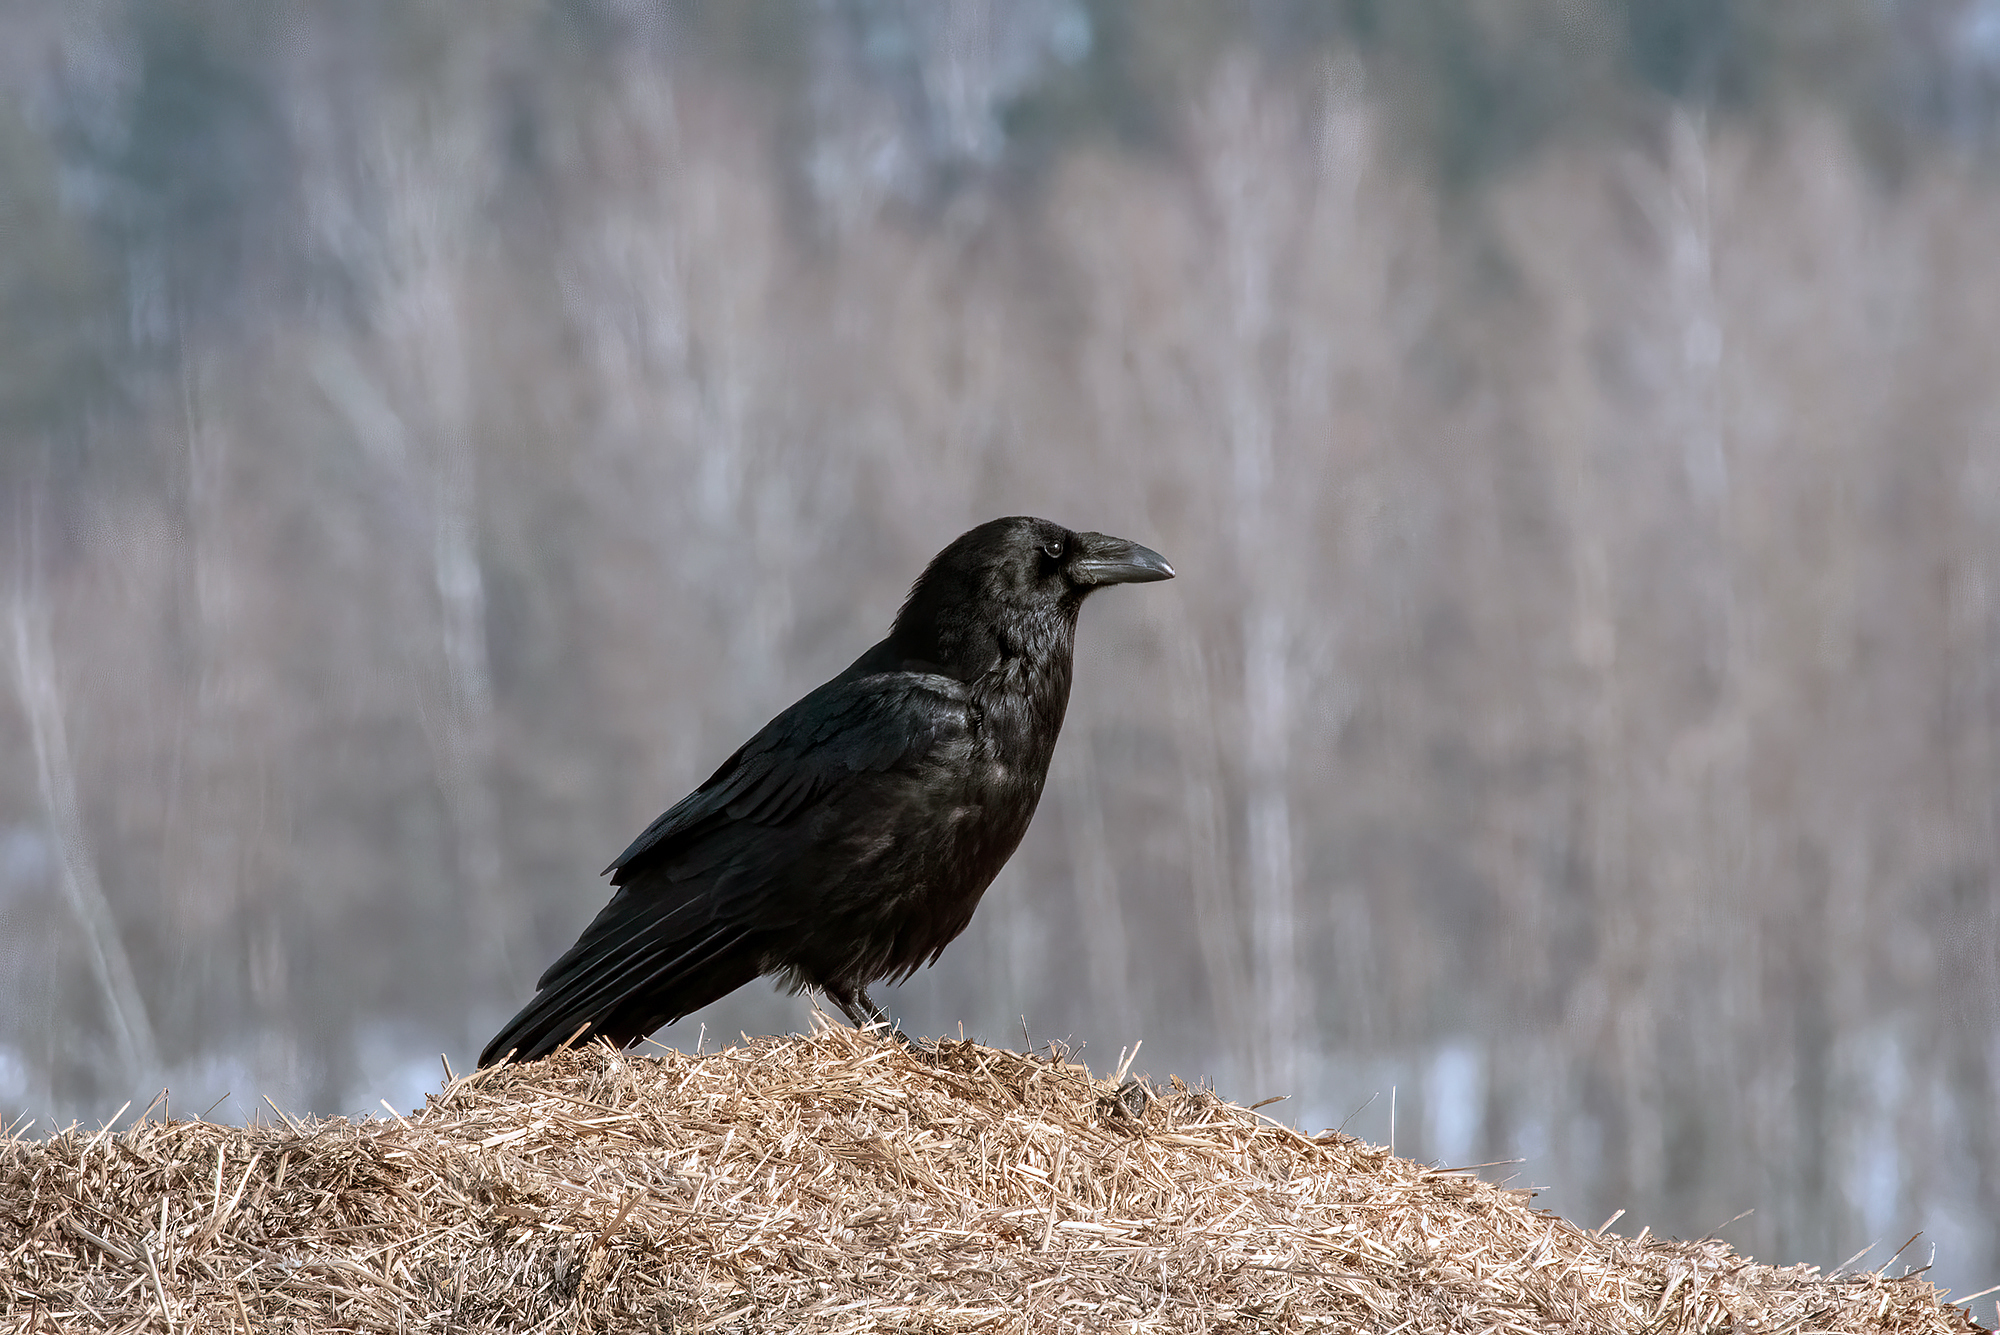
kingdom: Animalia
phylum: Chordata
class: Aves
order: Passeriformes
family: Corvidae
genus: Corvus
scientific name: Corvus corax
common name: Common raven
